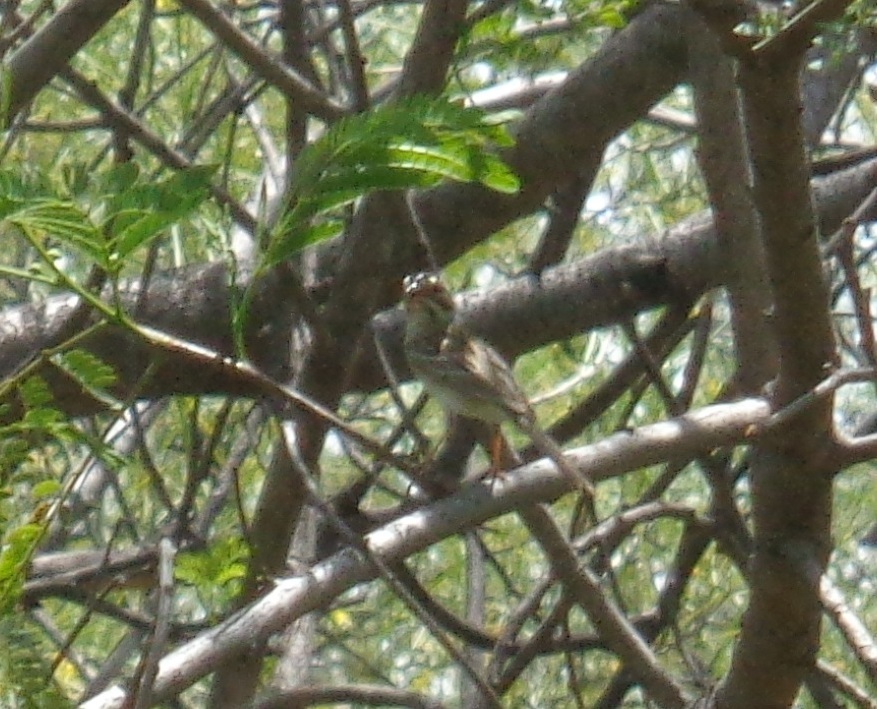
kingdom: Animalia
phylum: Chordata
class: Aves
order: Passeriformes
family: Passerellidae
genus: Spizella
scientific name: Spizella pallida
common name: Clay-colored sparrow
